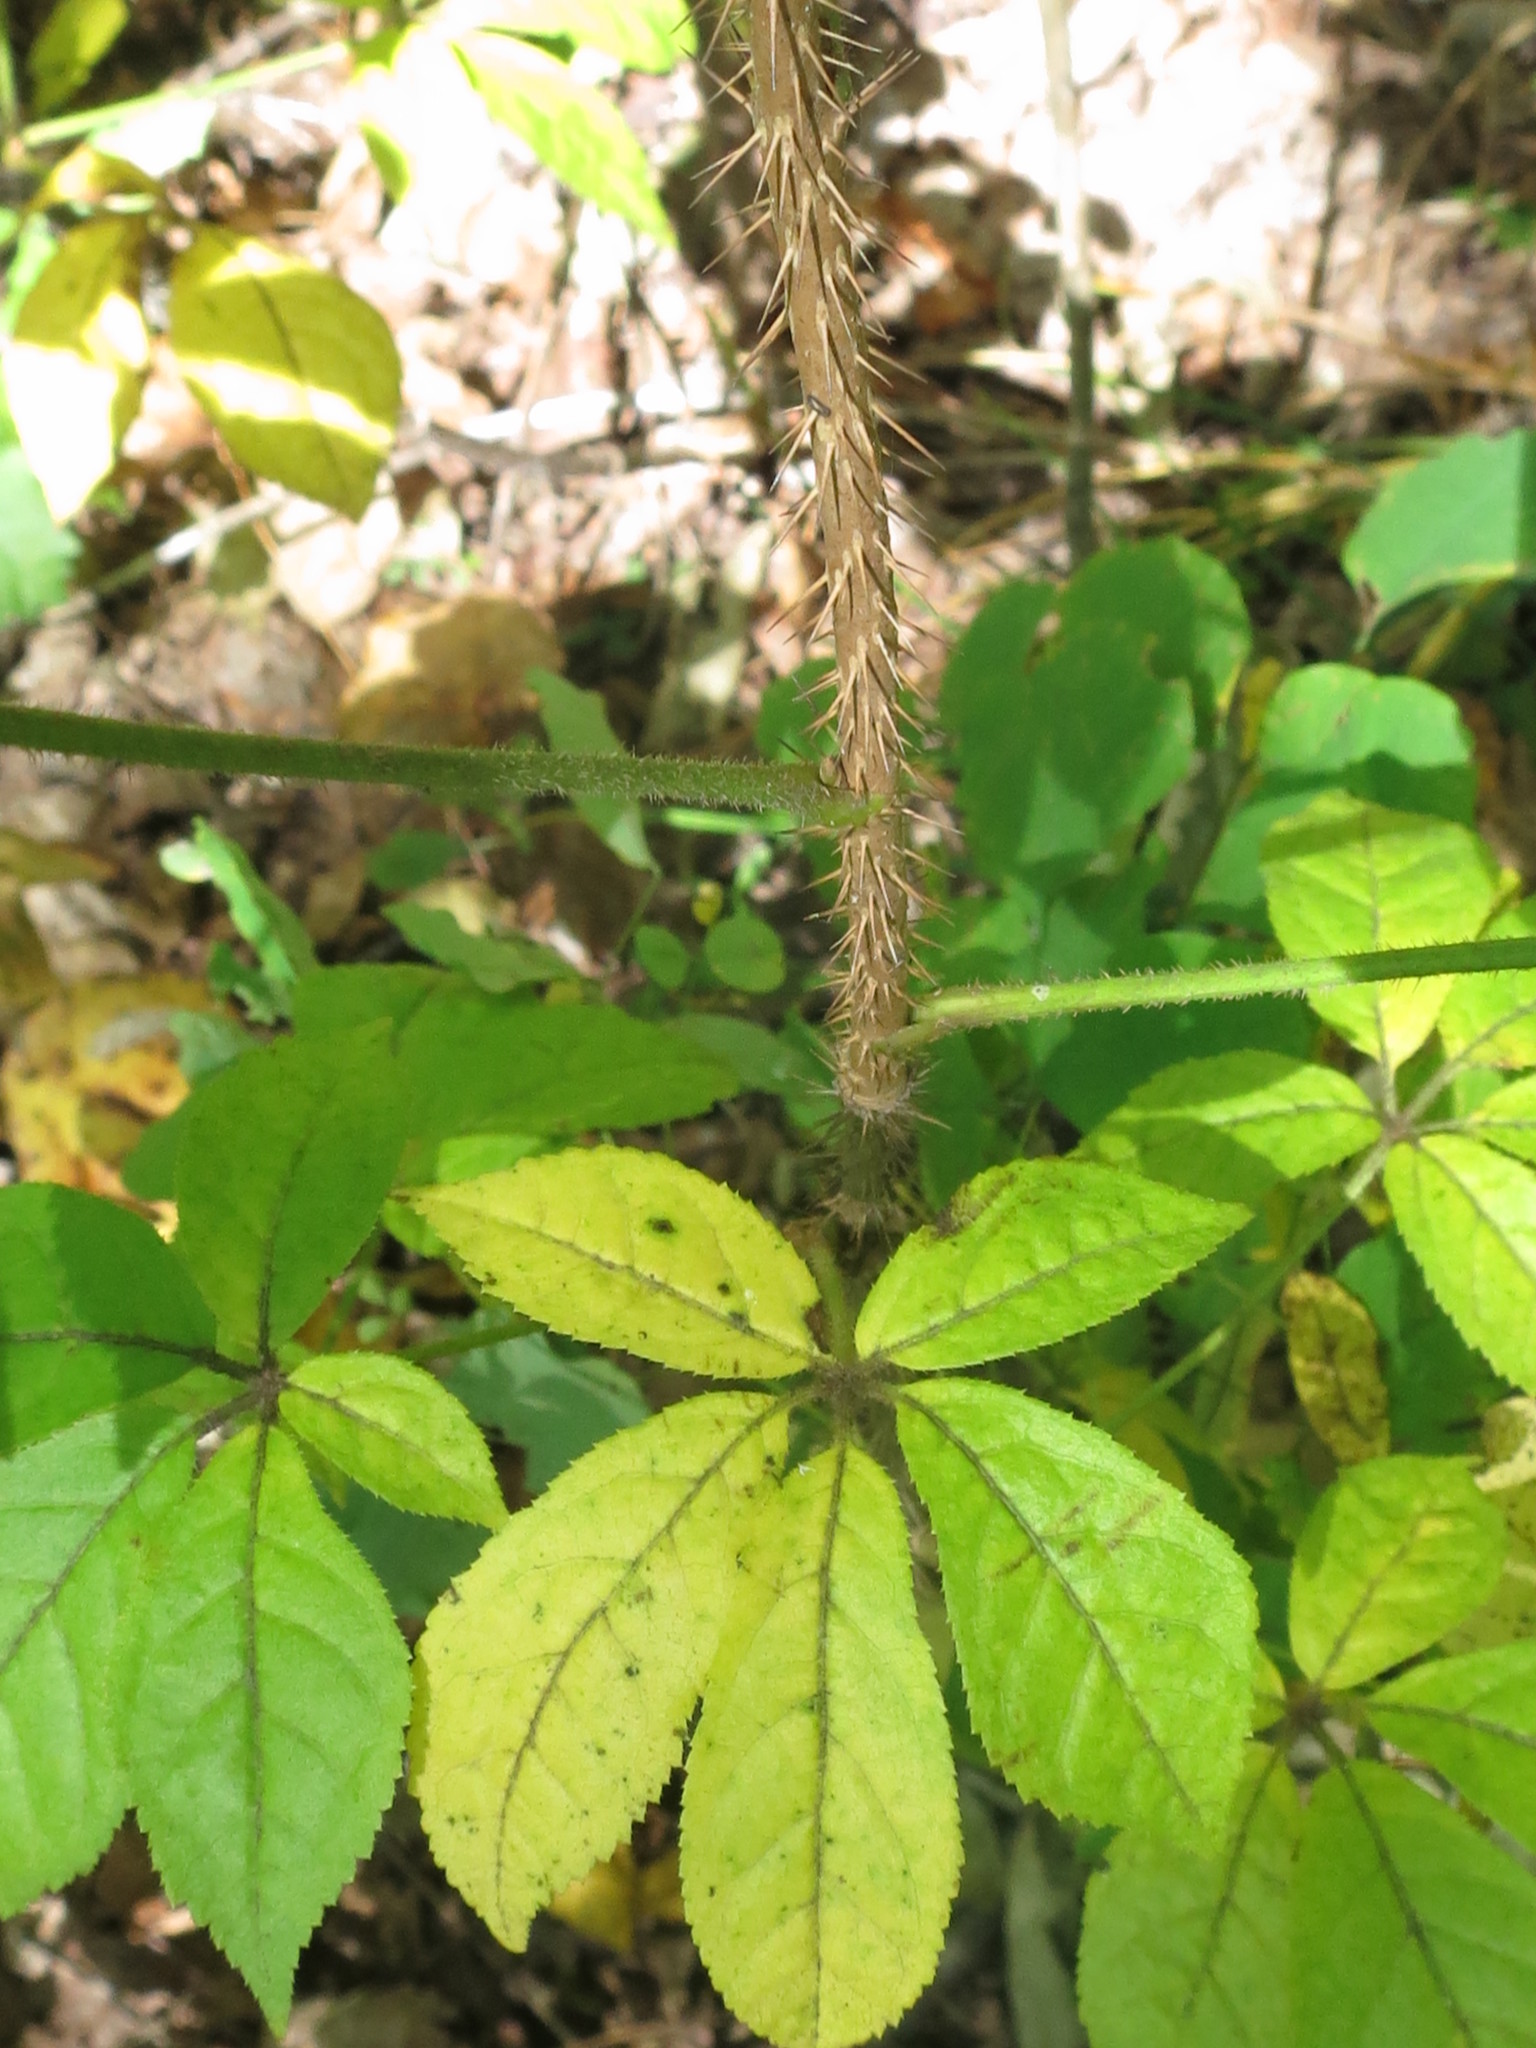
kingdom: Plantae
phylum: Tracheophyta
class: Magnoliopsida
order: Apiales
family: Araliaceae
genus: Eleutherococcus
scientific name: Eleutherococcus senticosus
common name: Siberian-ginseng
